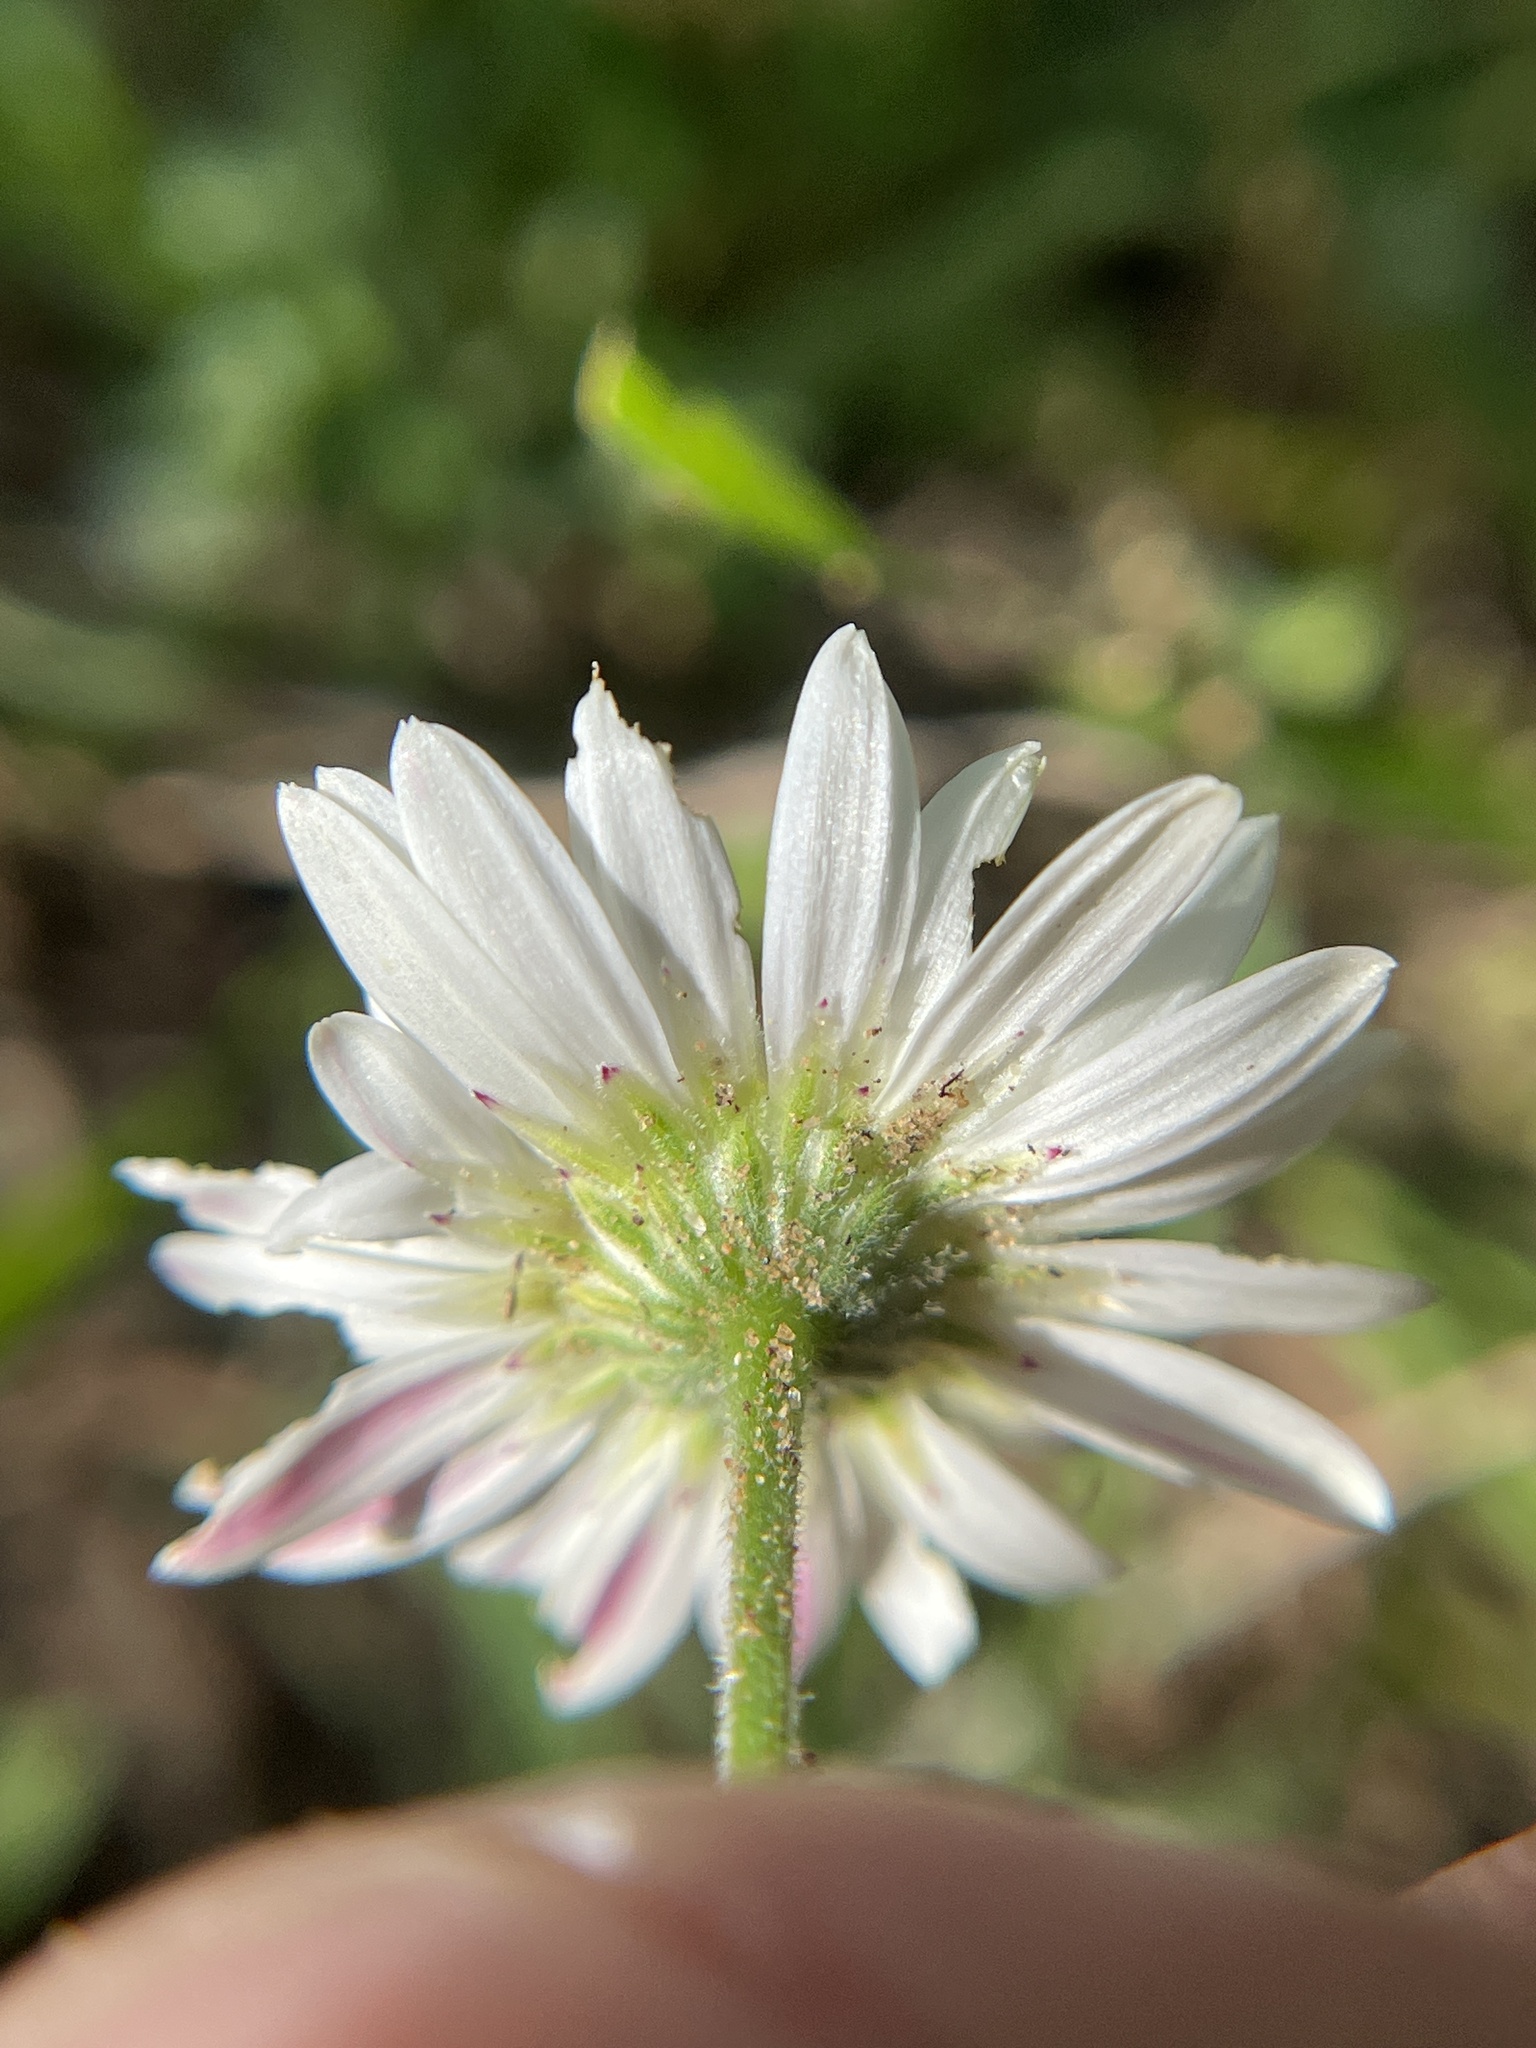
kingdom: Plantae
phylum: Tracheophyta
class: Magnoliopsida
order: Asterales
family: Asteraceae
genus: Aphanostephus
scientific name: Aphanostephus ramosissimus
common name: Plains lazy daisy
